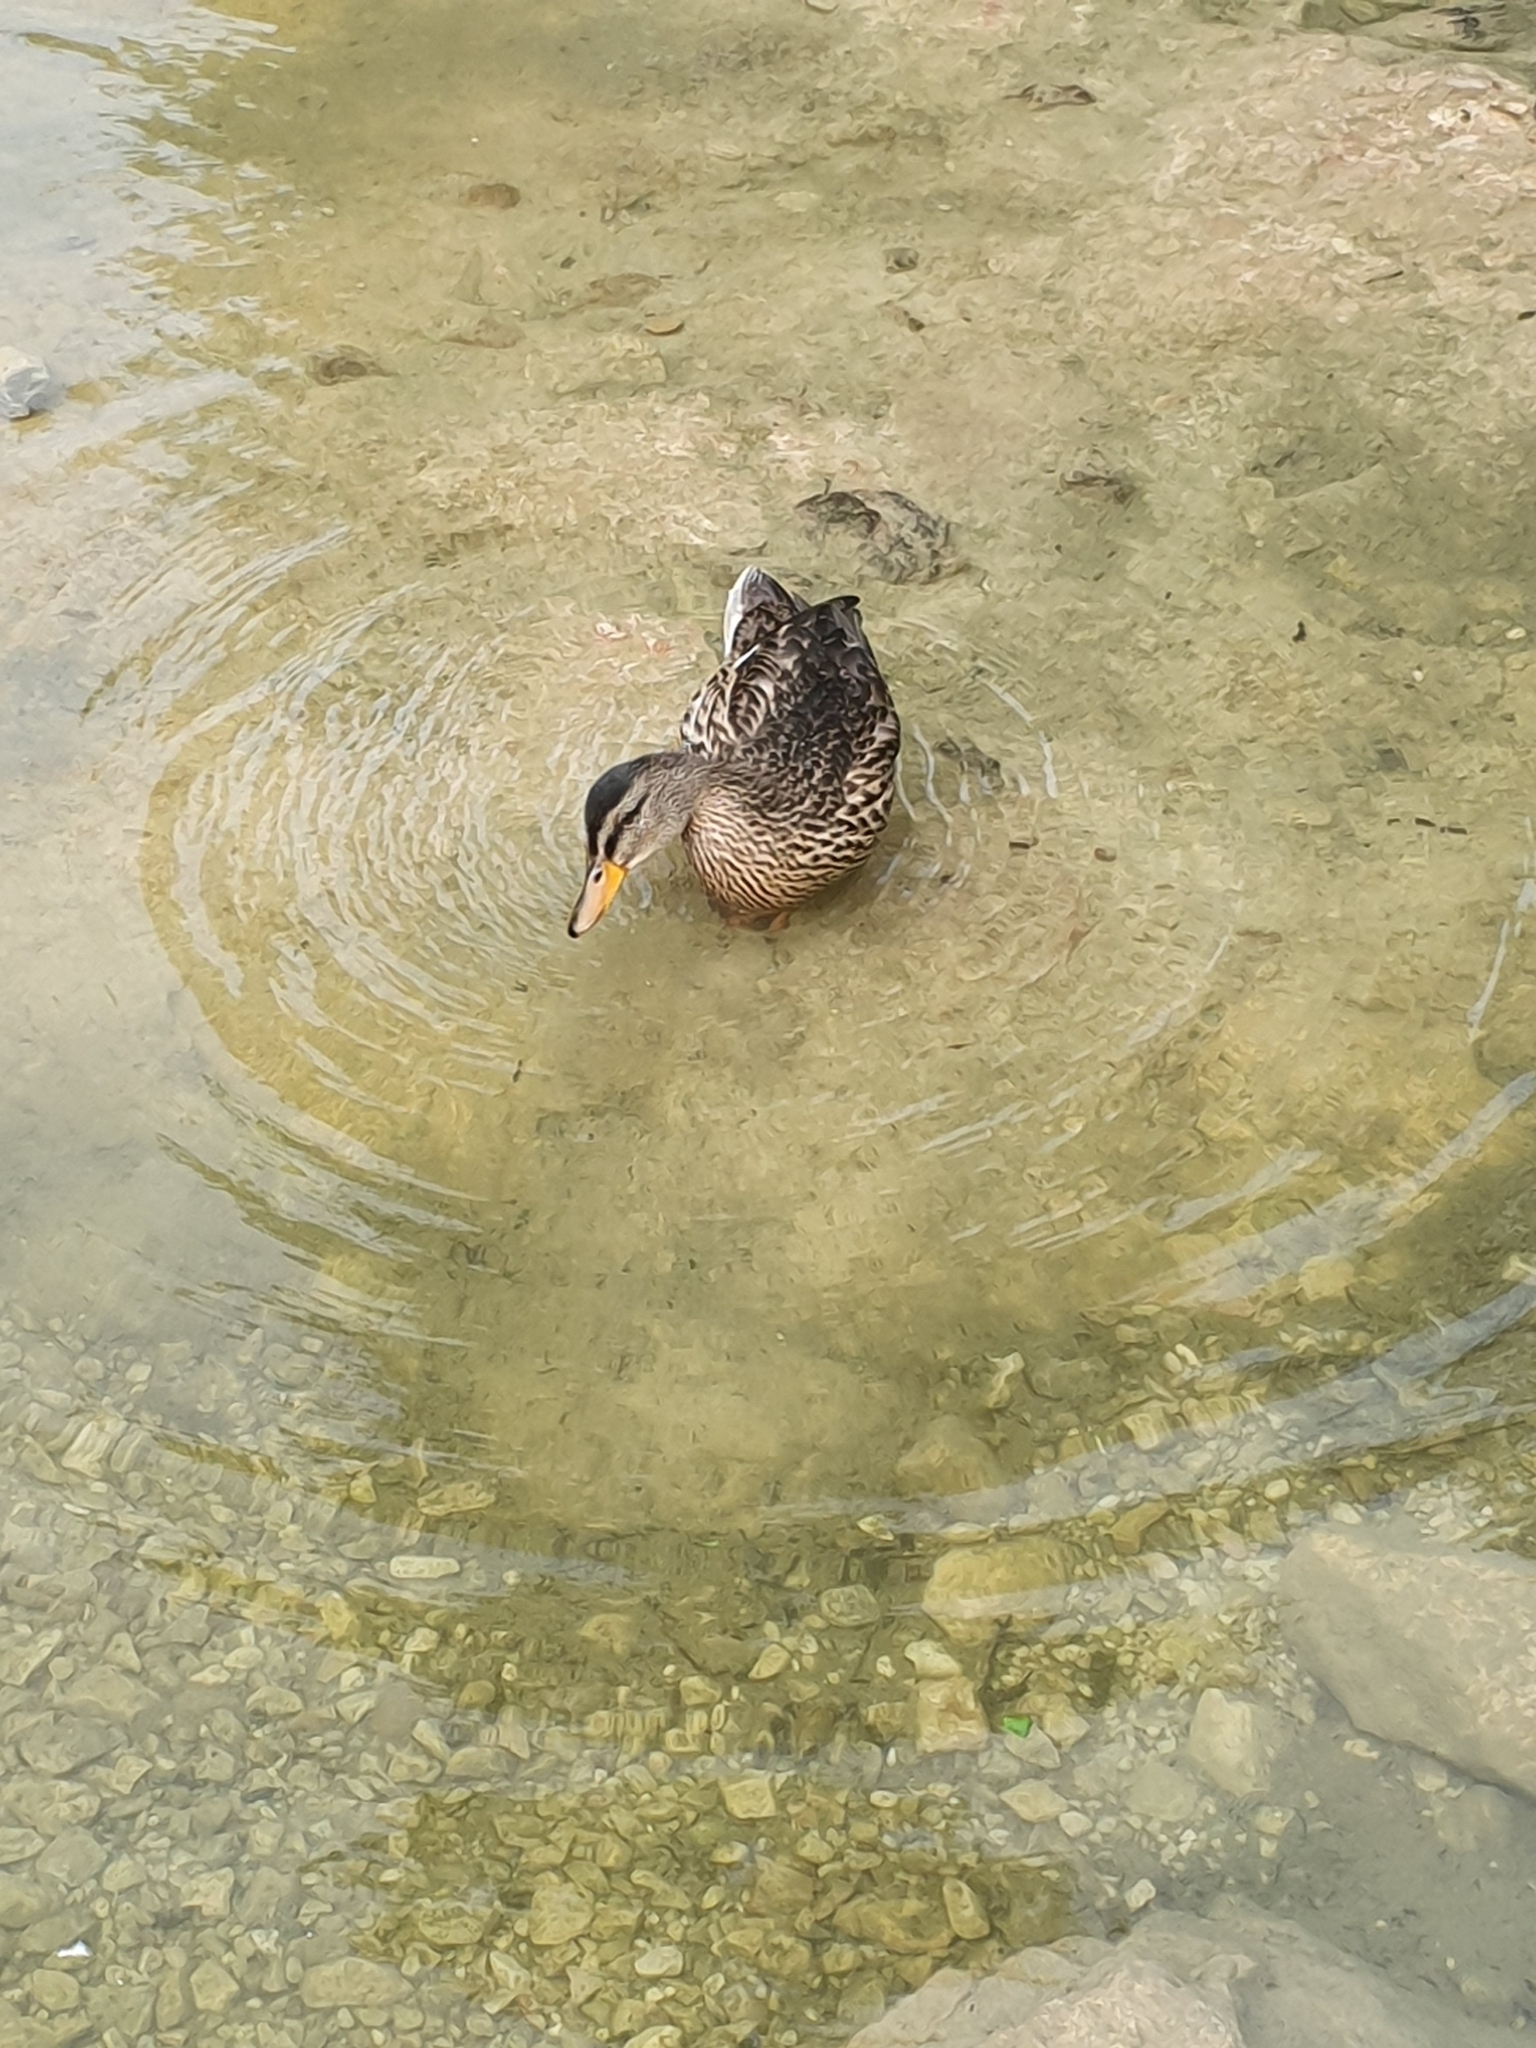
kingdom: Animalia
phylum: Chordata
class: Aves
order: Anseriformes
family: Anatidae
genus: Anas
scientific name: Anas platyrhynchos
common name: Mallard
